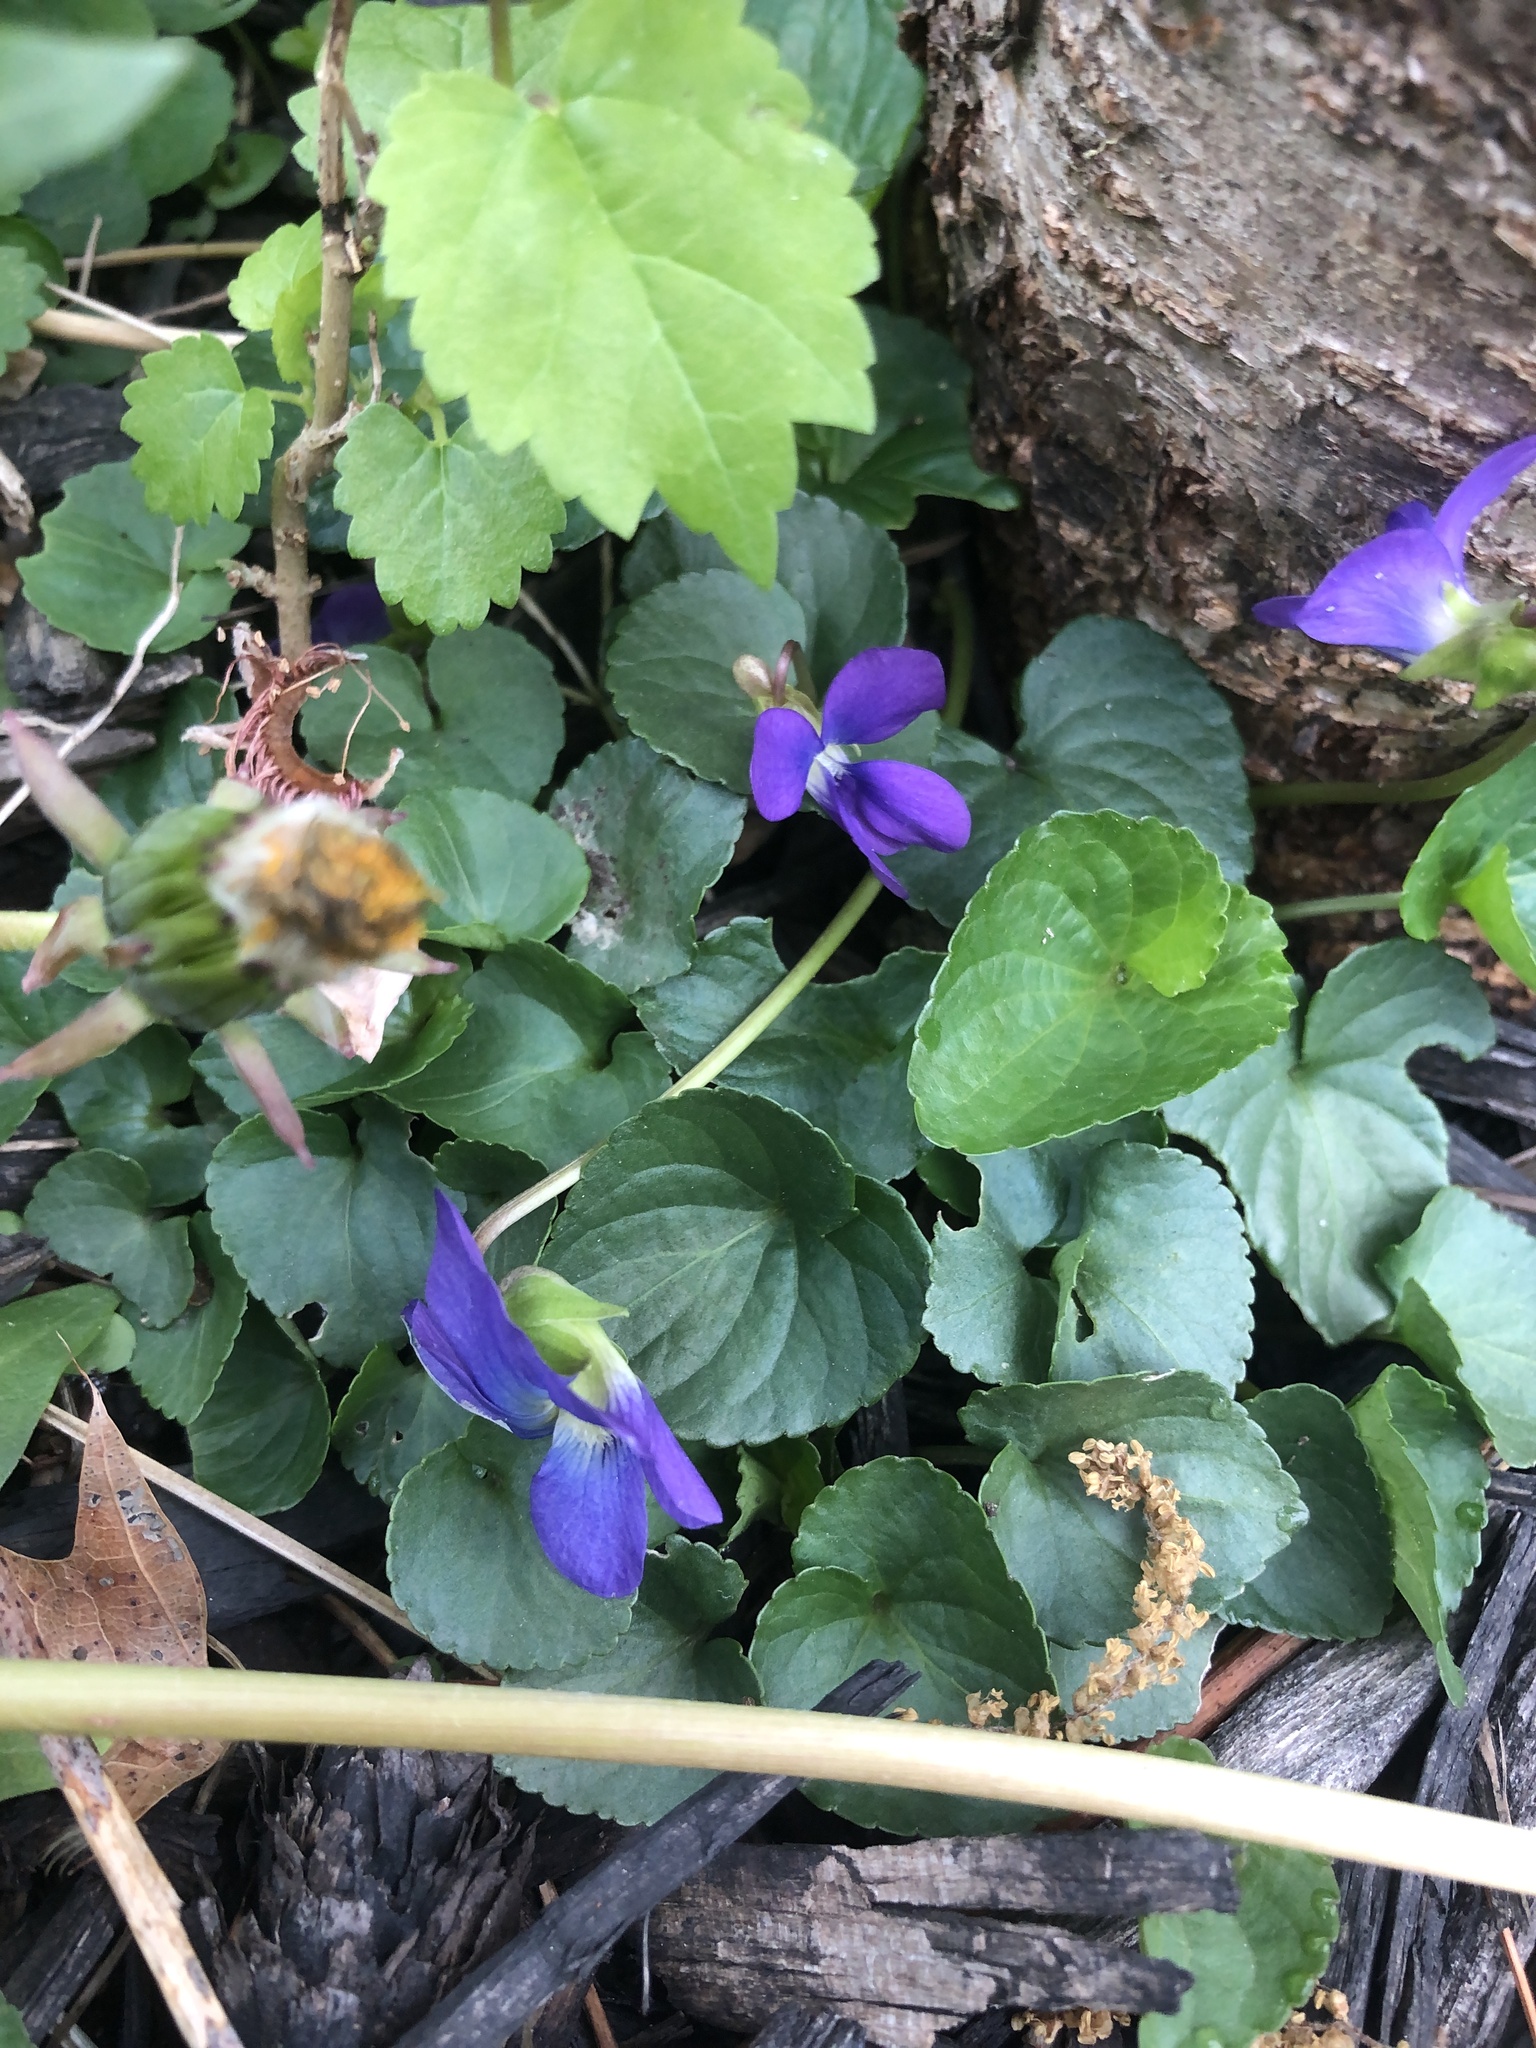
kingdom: Plantae
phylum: Tracheophyta
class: Magnoliopsida
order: Malpighiales
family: Violaceae
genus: Viola
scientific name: Viola sororia
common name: Dooryard violet
